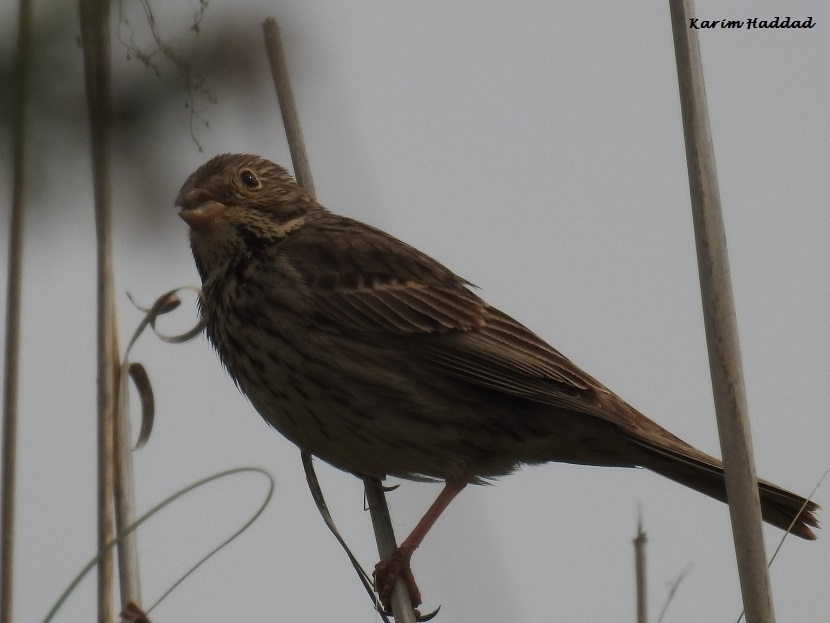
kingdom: Animalia
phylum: Chordata
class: Aves
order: Passeriformes
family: Emberizidae
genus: Emberiza
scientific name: Emberiza calandra
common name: Corn bunting
